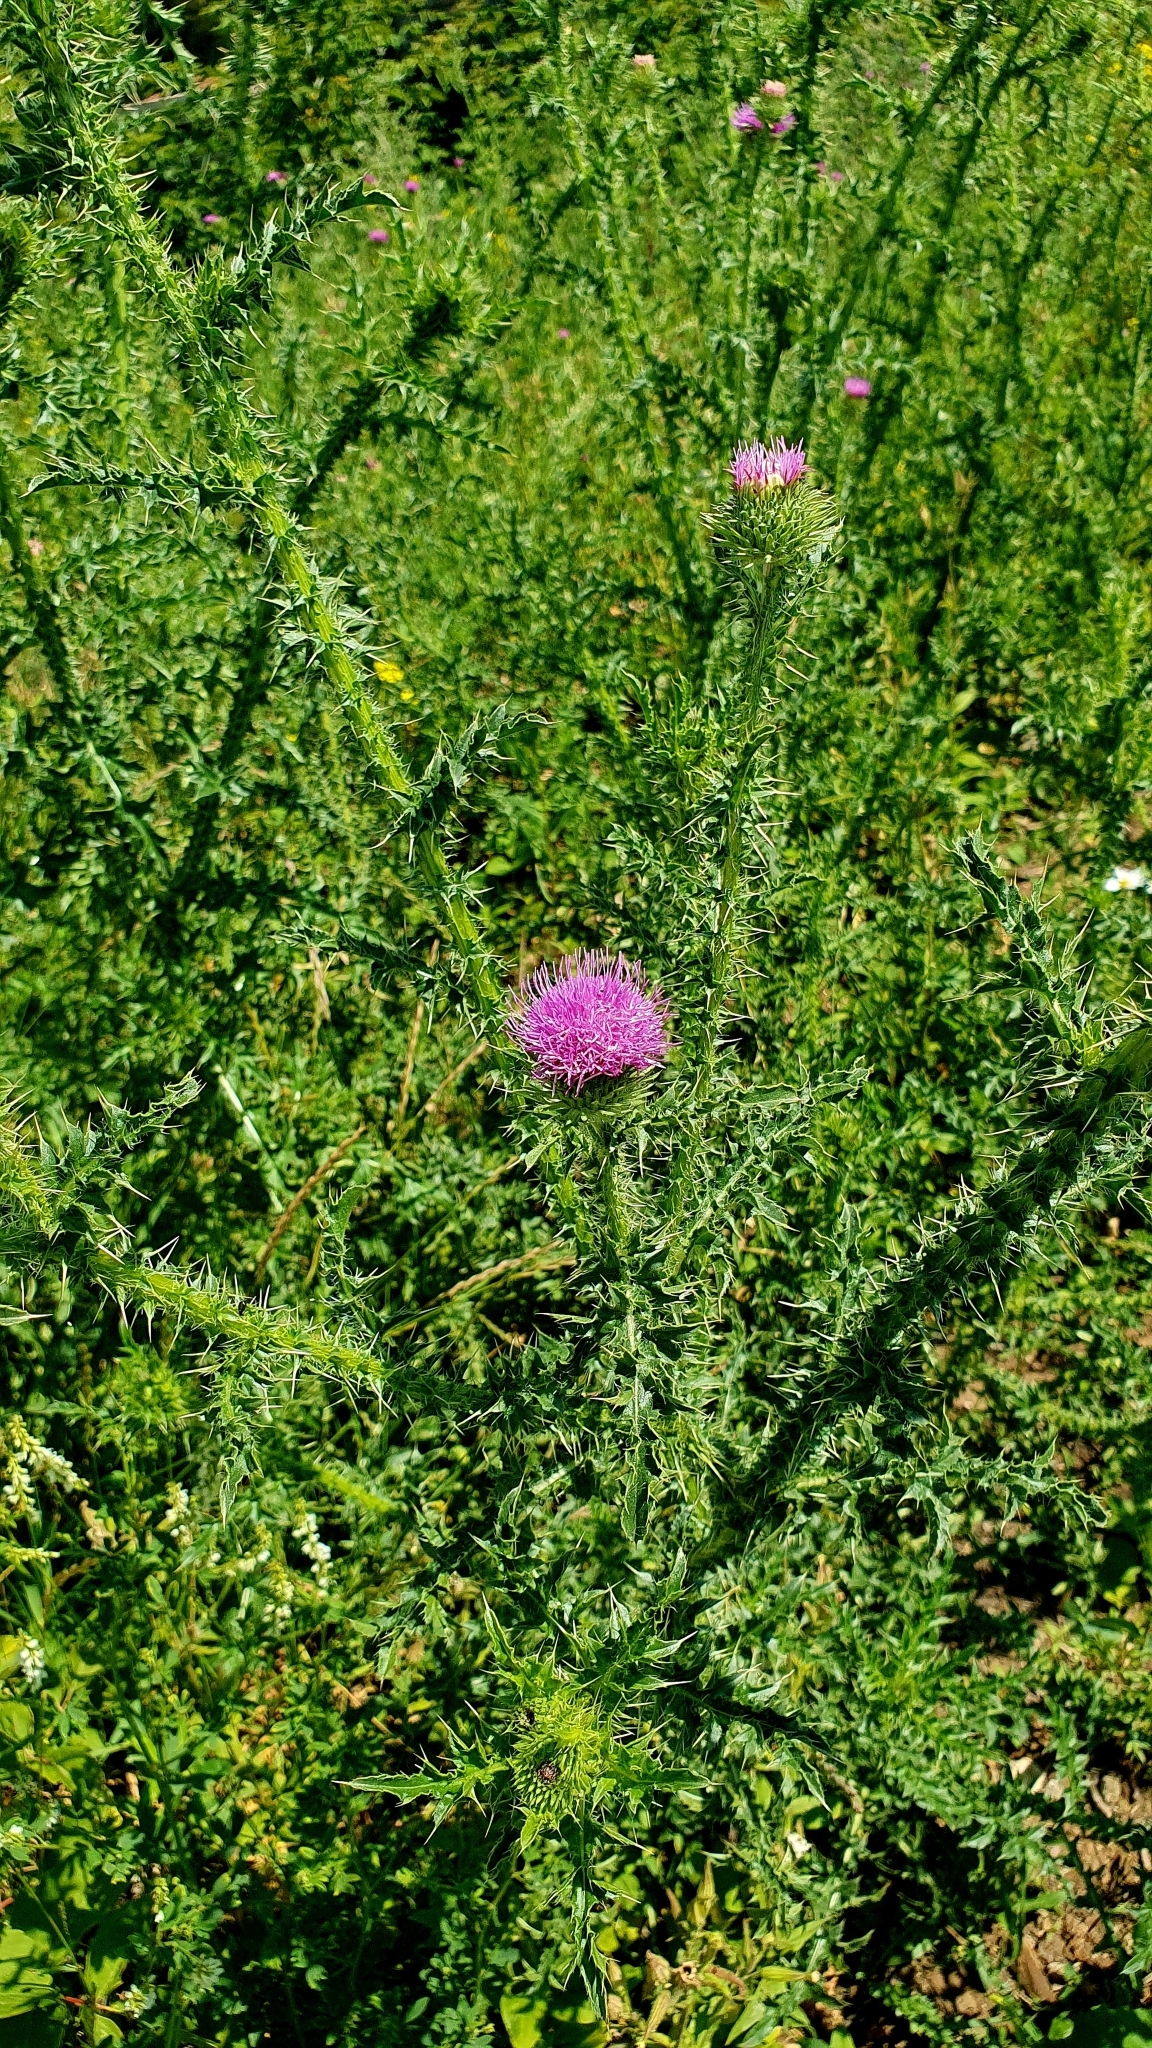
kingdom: Plantae
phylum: Tracheophyta
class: Magnoliopsida
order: Asterales
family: Asteraceae
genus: Carduus
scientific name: Carduus acanthoides
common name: Plumeless thistle
